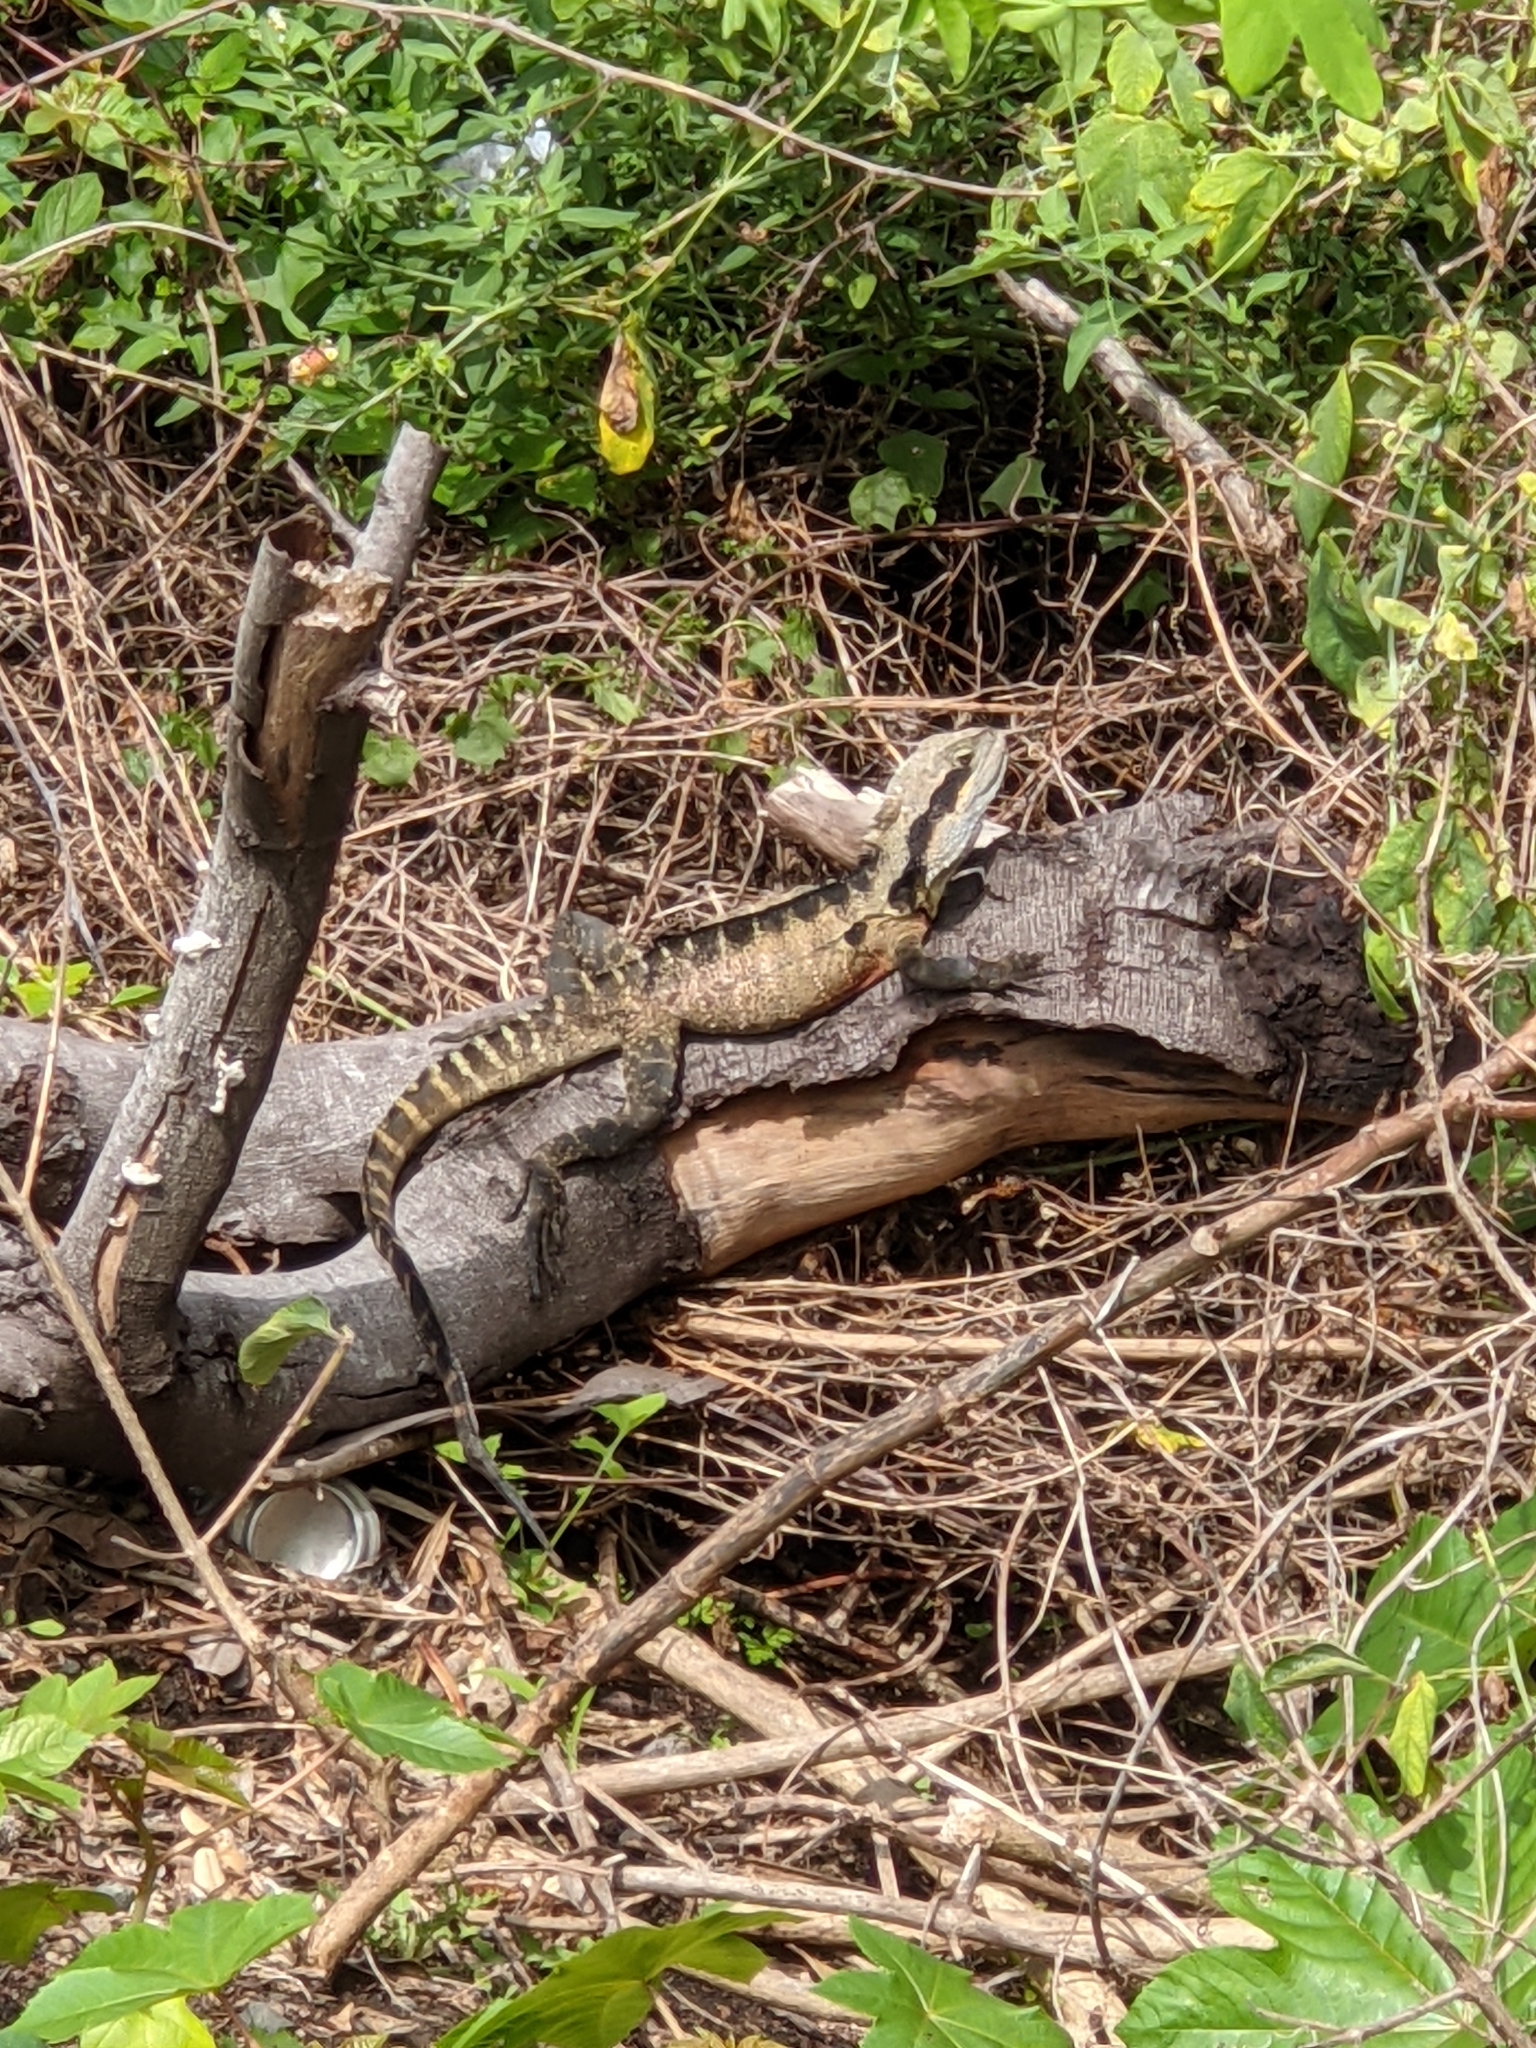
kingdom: Animalia
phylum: Chordata
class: Squamata
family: Agamidae
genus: Intellagama
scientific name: Intellagama lesueurii
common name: Eastern water dragon
